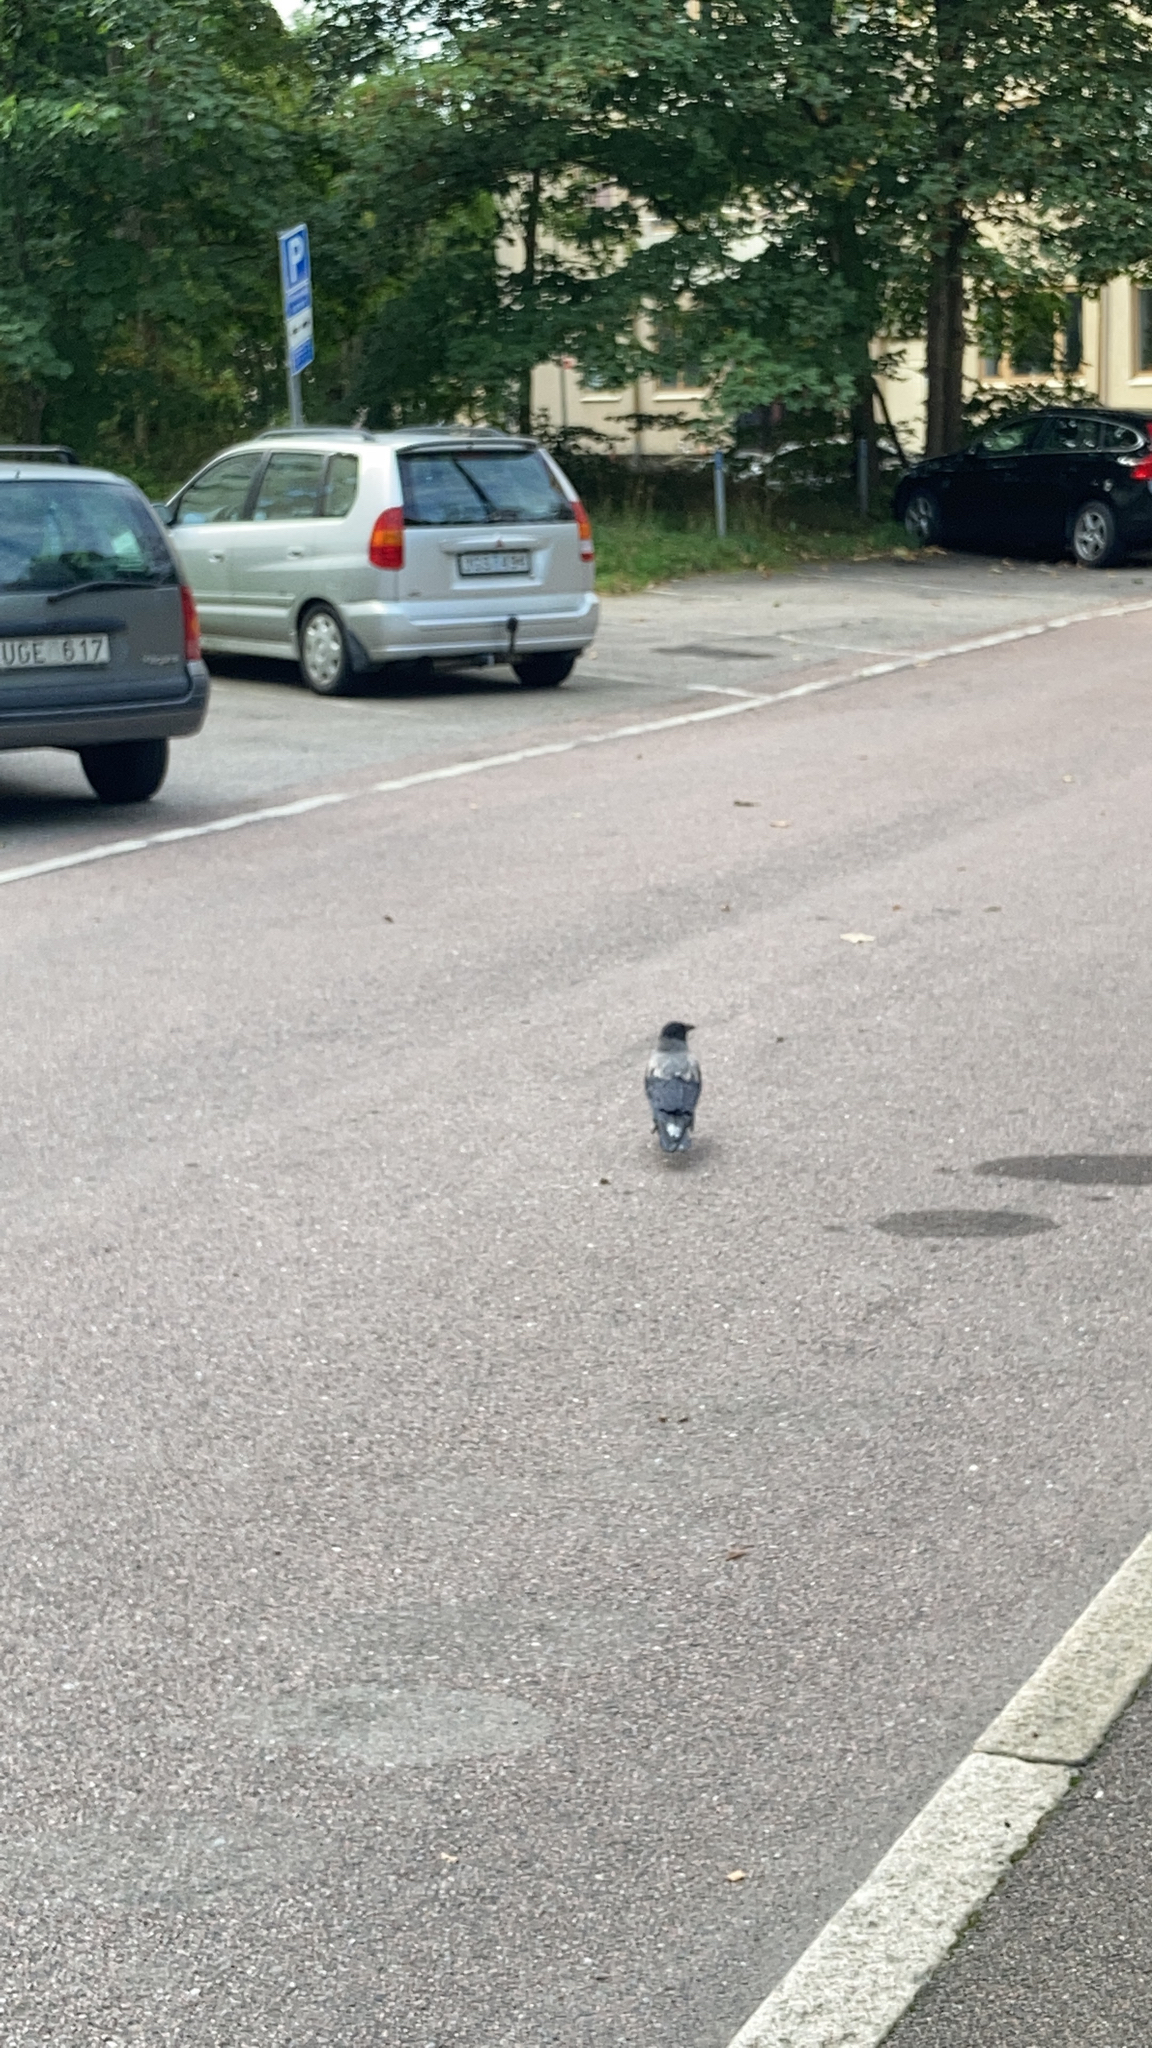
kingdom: Animalia
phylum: Chordata
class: Aves
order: Passeriformes
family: Corvidae
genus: Corvus
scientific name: Corvus cornix
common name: Hooded crow
